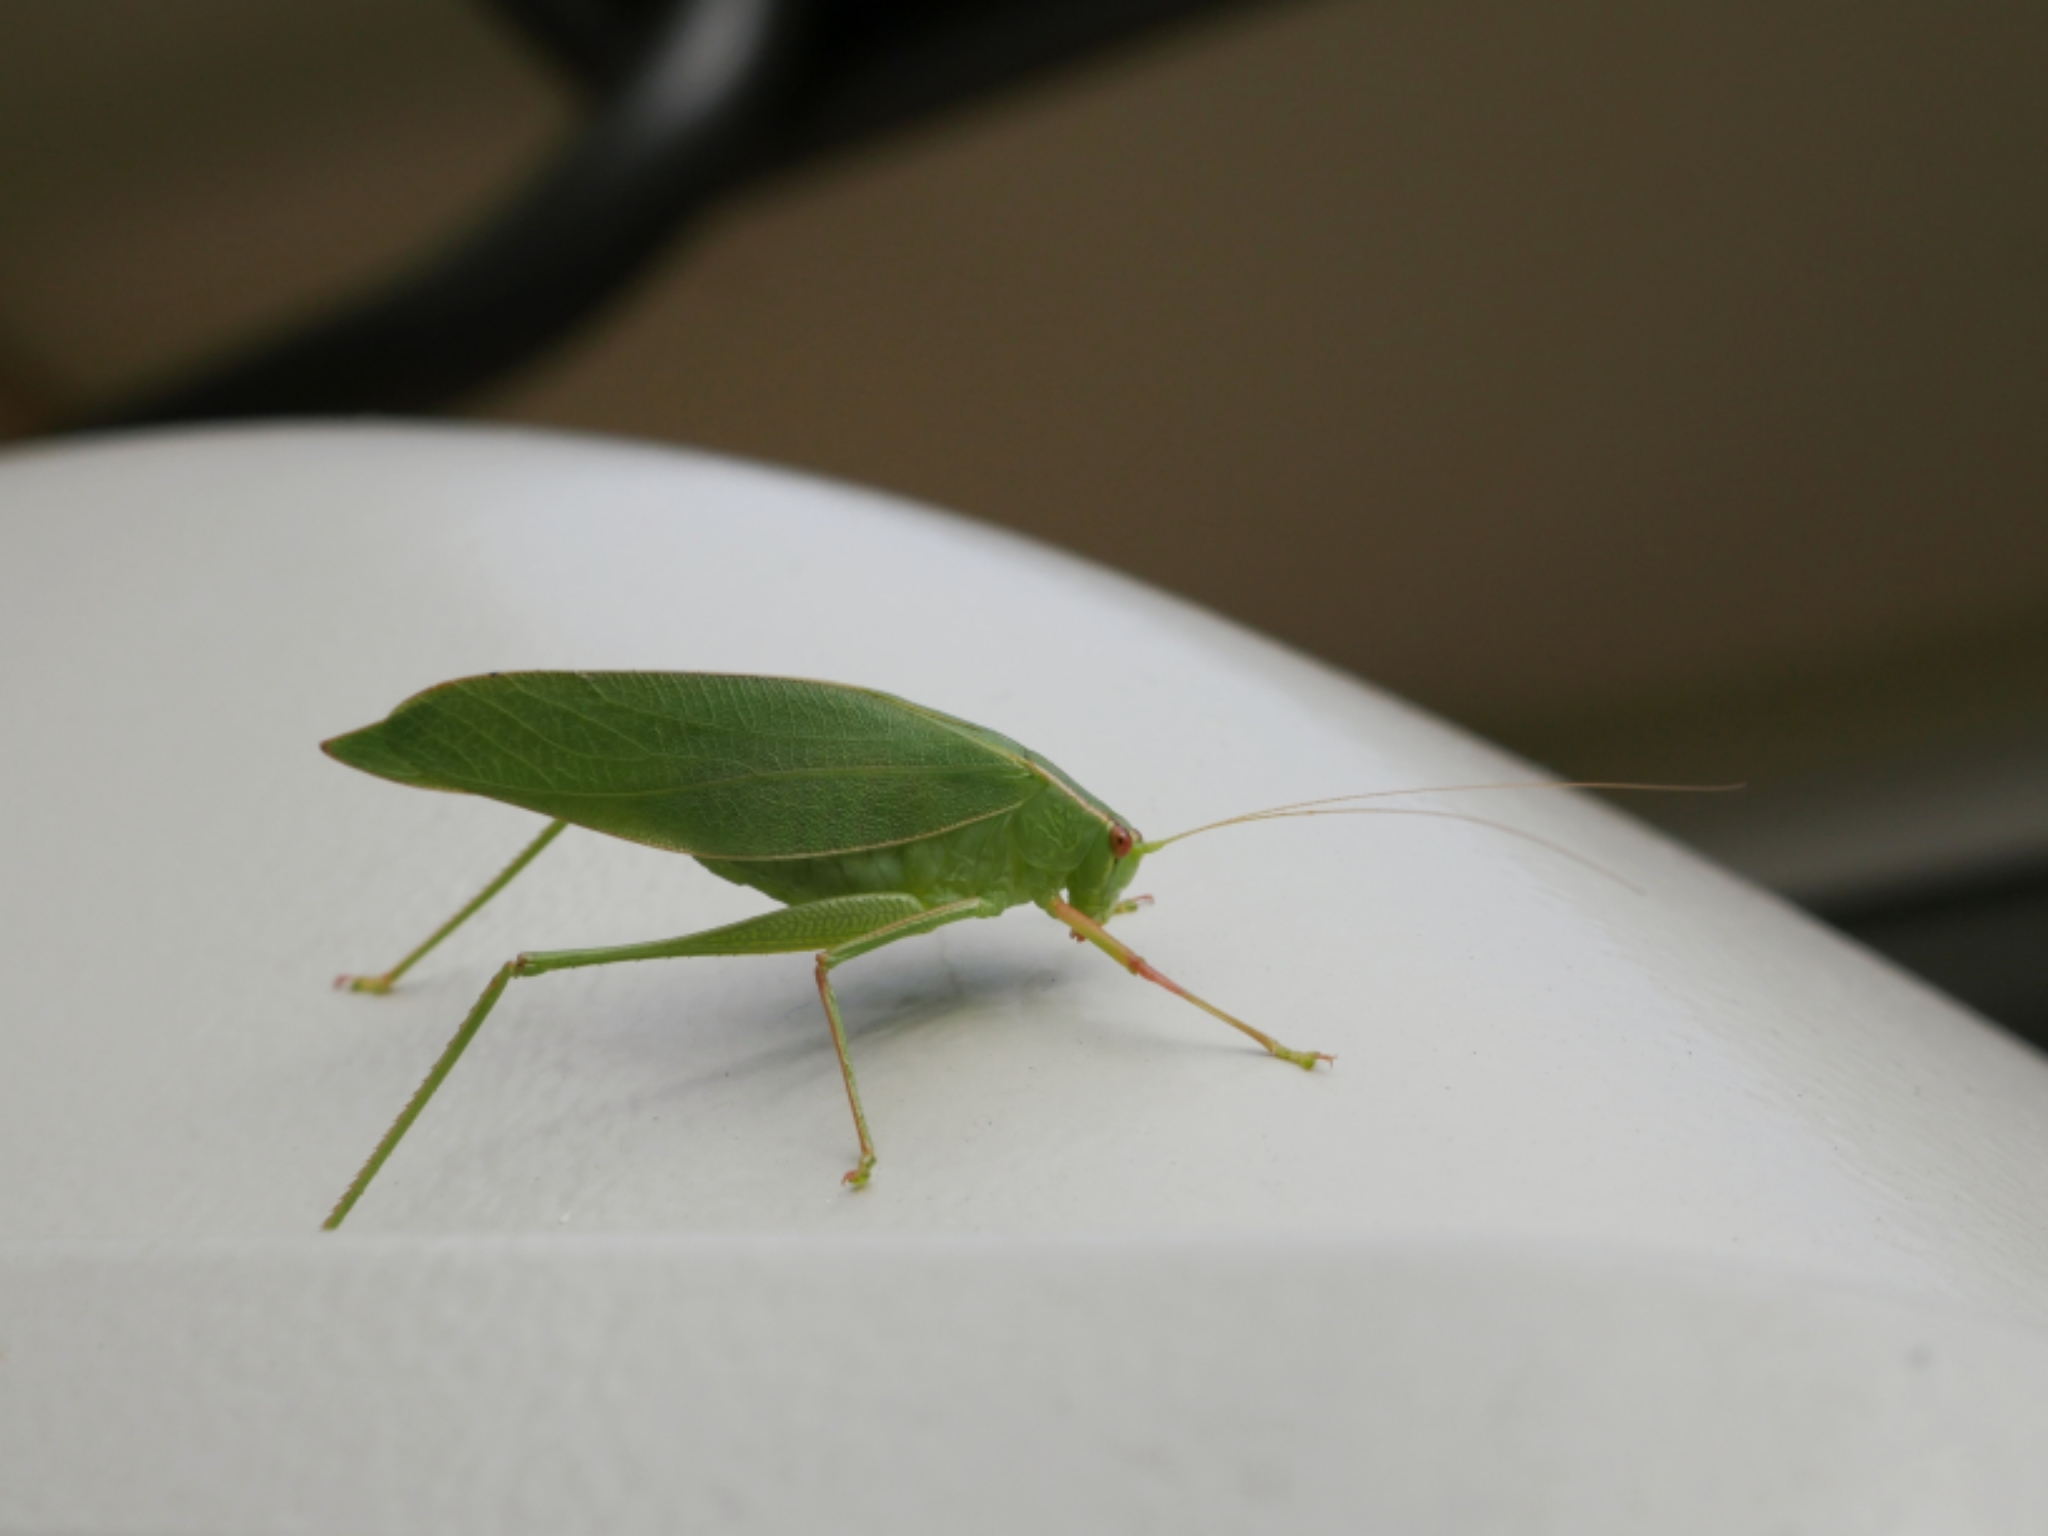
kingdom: Animalia
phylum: Arthropoda
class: Insecta
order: Orthoptera
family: Tettigoniidae
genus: Caedicia
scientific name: Caedicia simplex
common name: Common garden katydid
